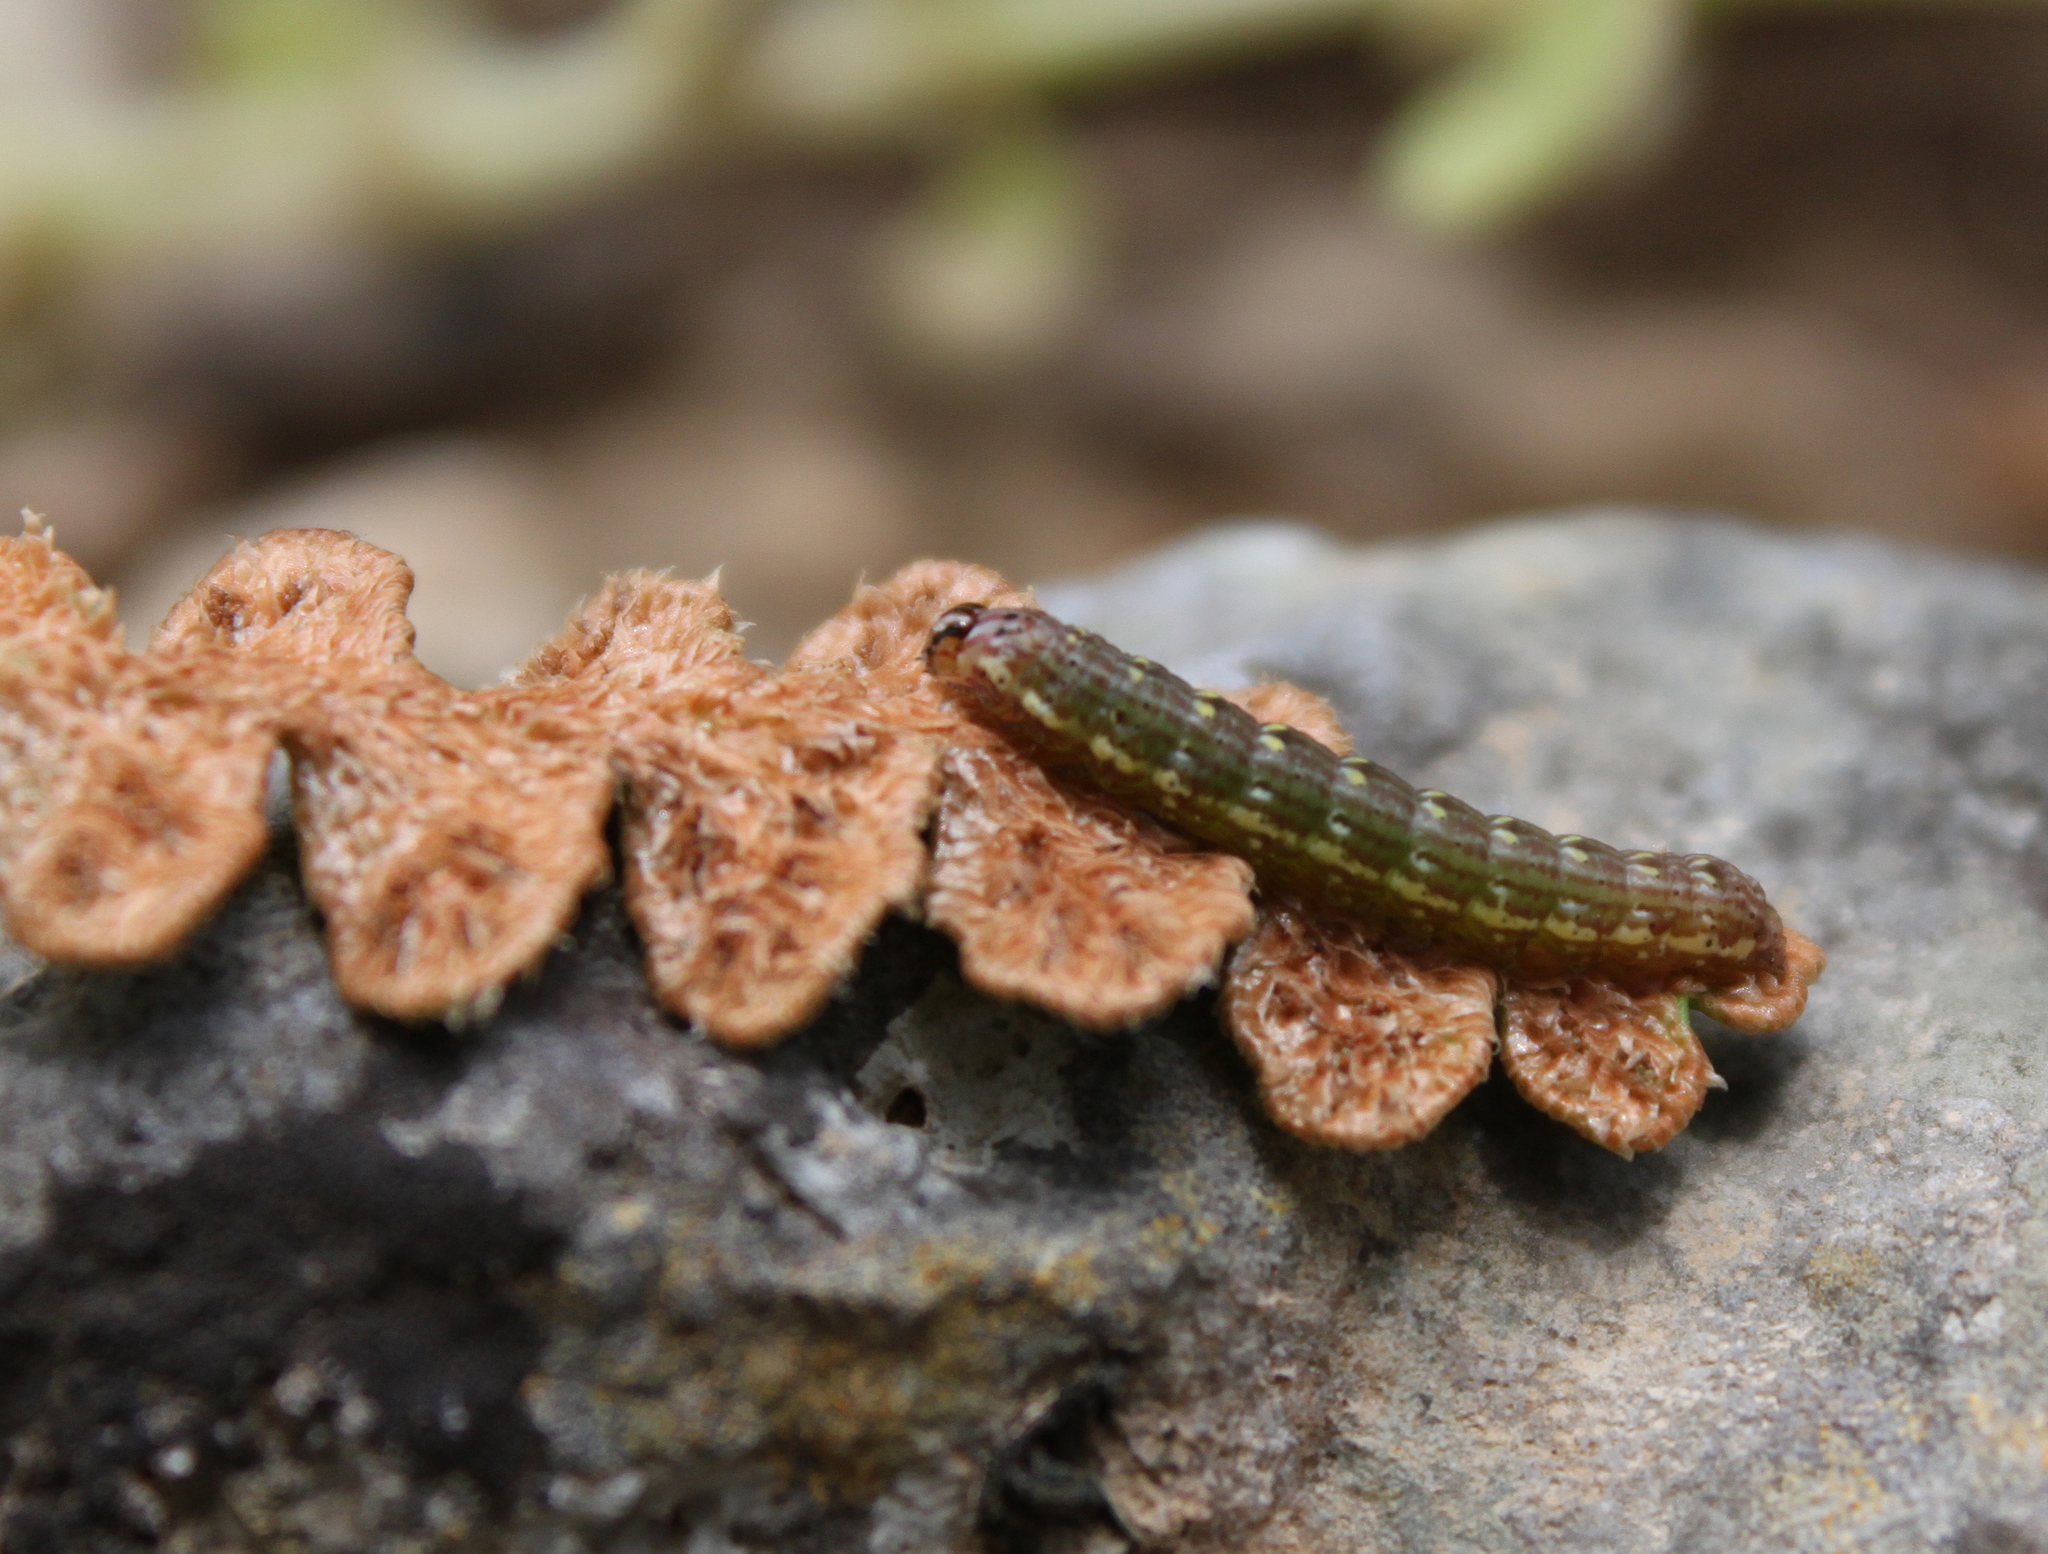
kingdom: Animalia
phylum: Arthropoda
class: Insecta
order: Lepidoptera
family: Noctuidae
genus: Callopistria
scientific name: Callopistria latreillei
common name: Latreille's latin
